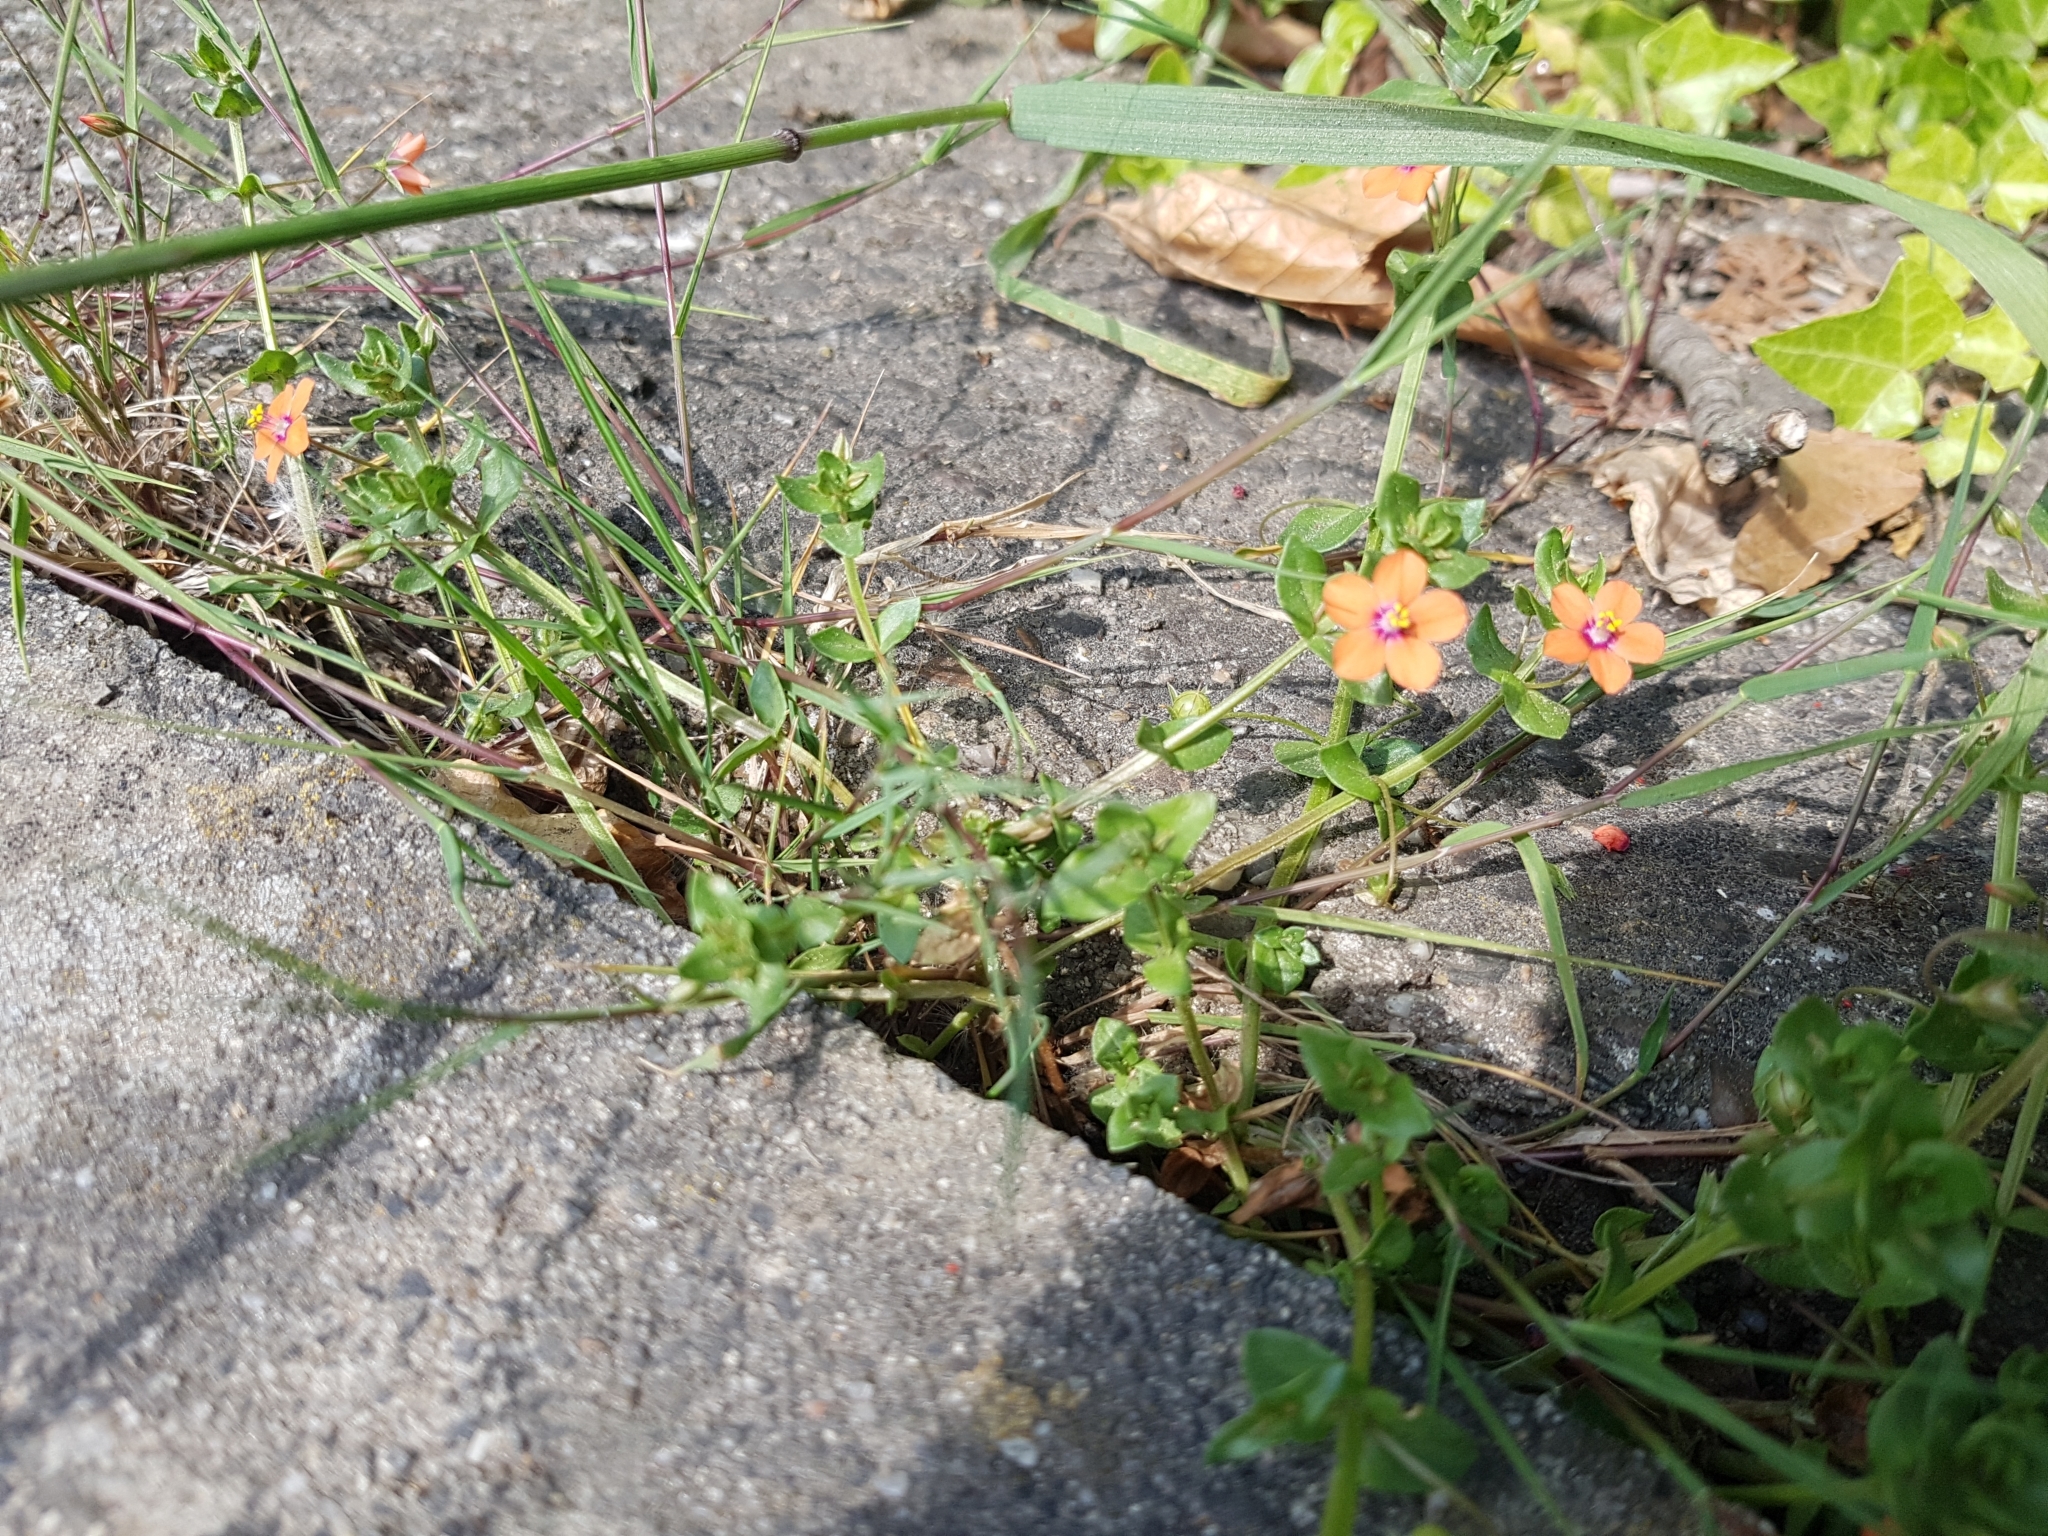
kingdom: Plantae
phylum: Tracheophyta
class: Magnoliopsida
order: Ericales
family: Primulaceae
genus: Lysimachia
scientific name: Lysimachia arvensis
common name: Scarlet pimpernel
